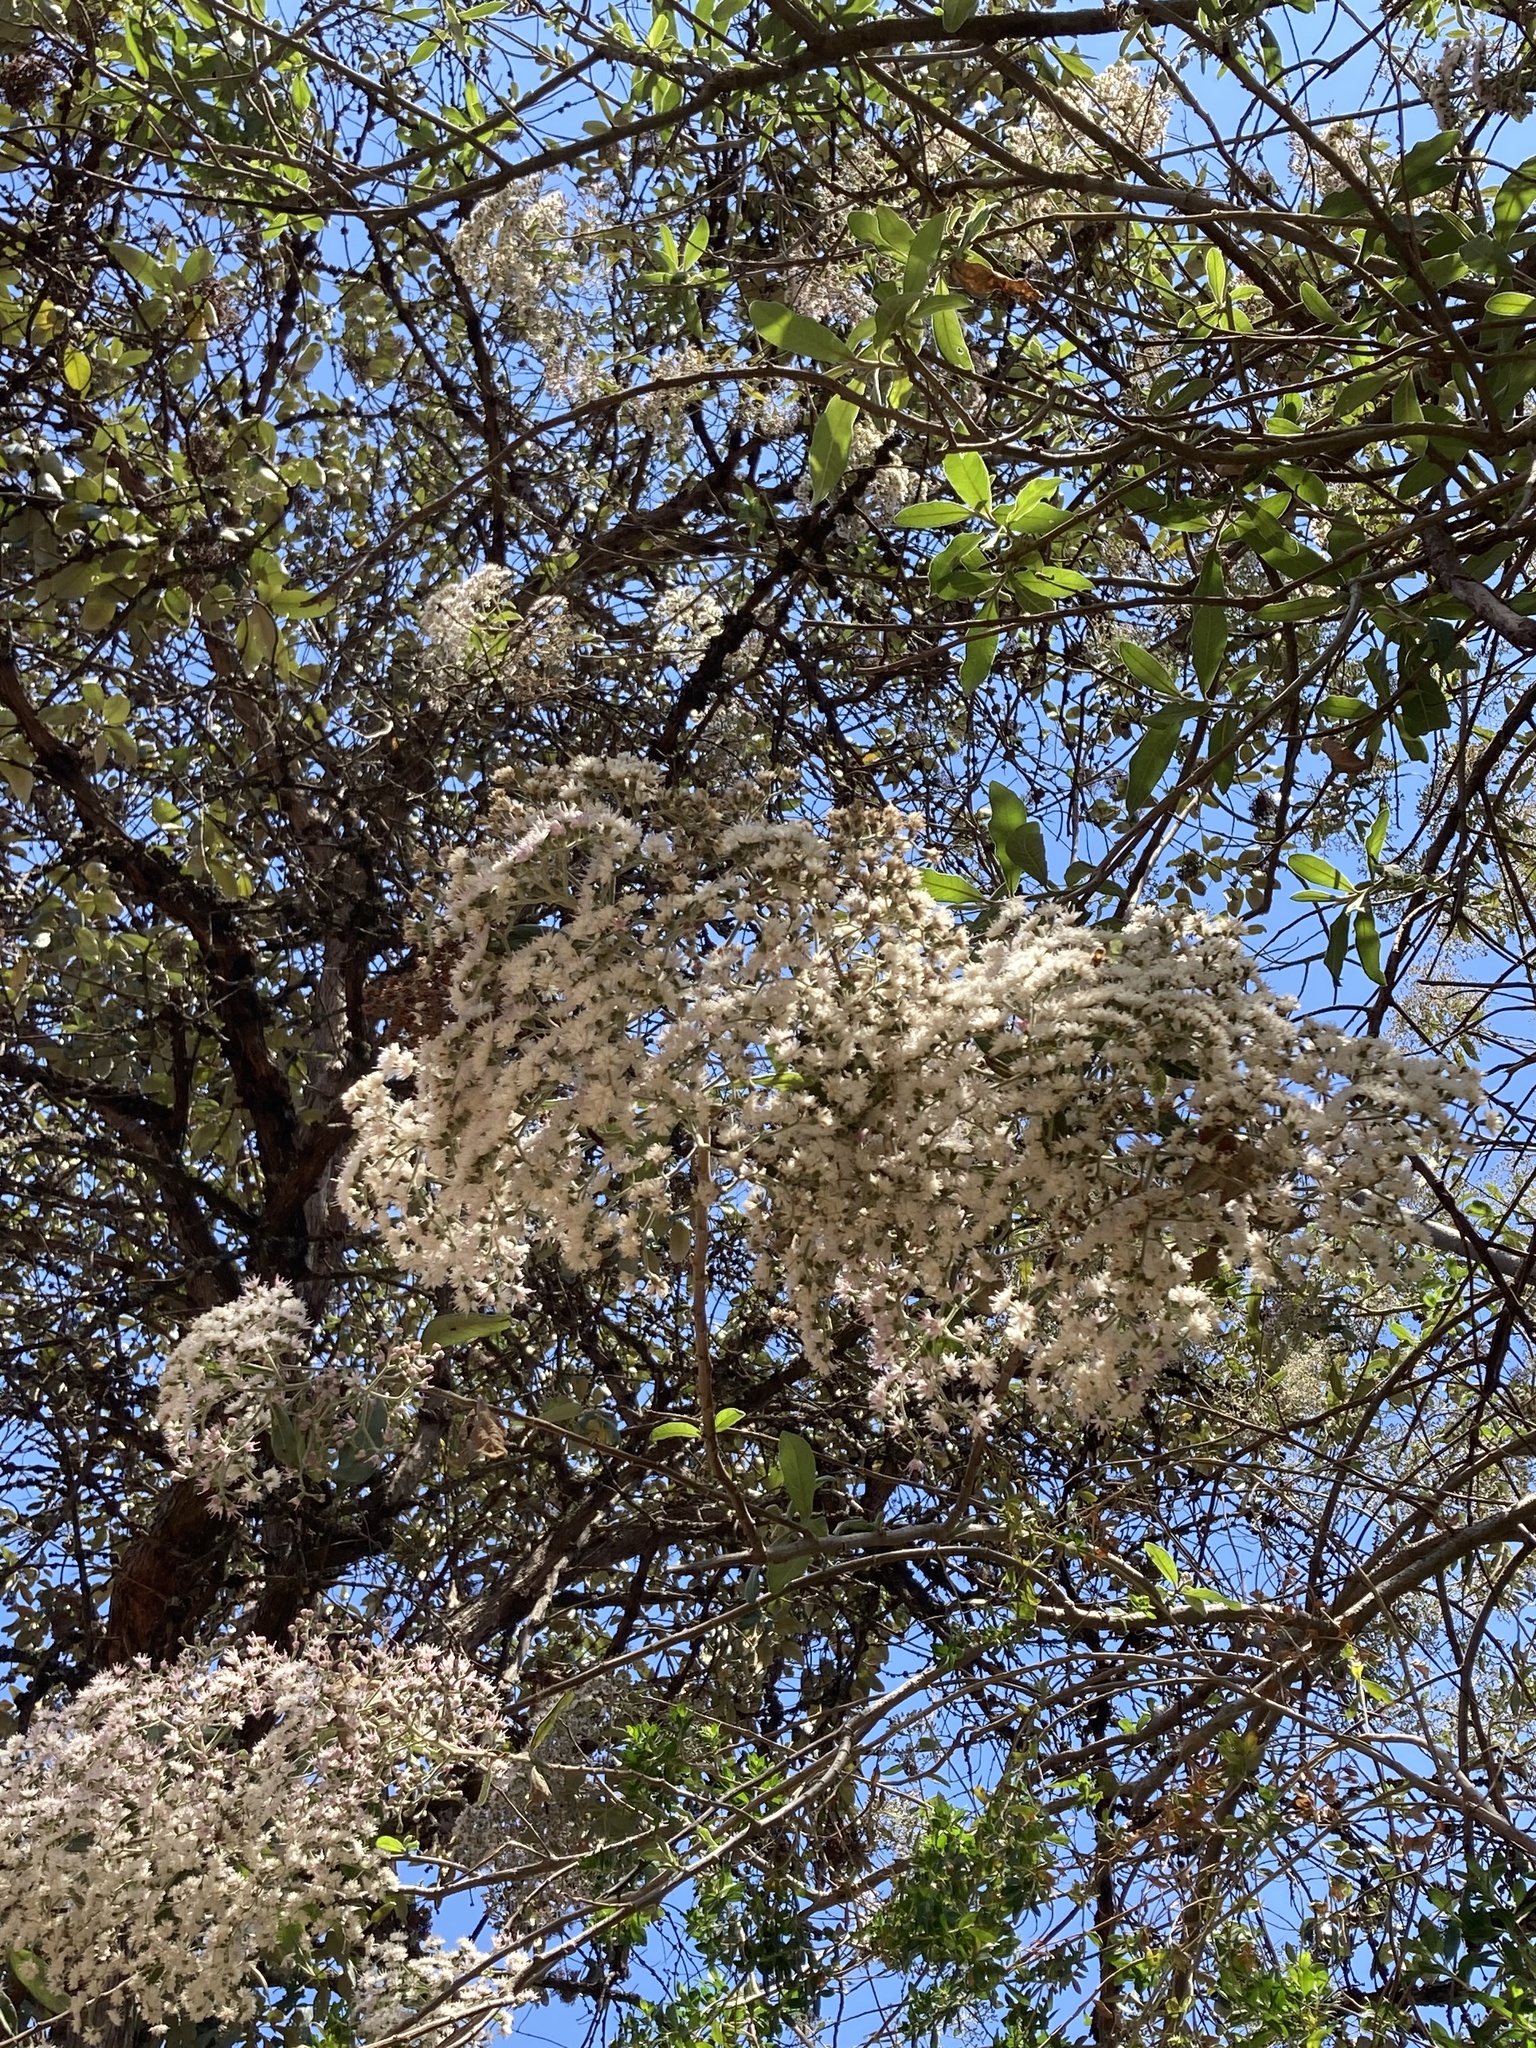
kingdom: Plantae
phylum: Tracheophyta
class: Magnoliopsida
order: Asterales
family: Asteraceae
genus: Vernonanthura
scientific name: Vernonanthura patens
